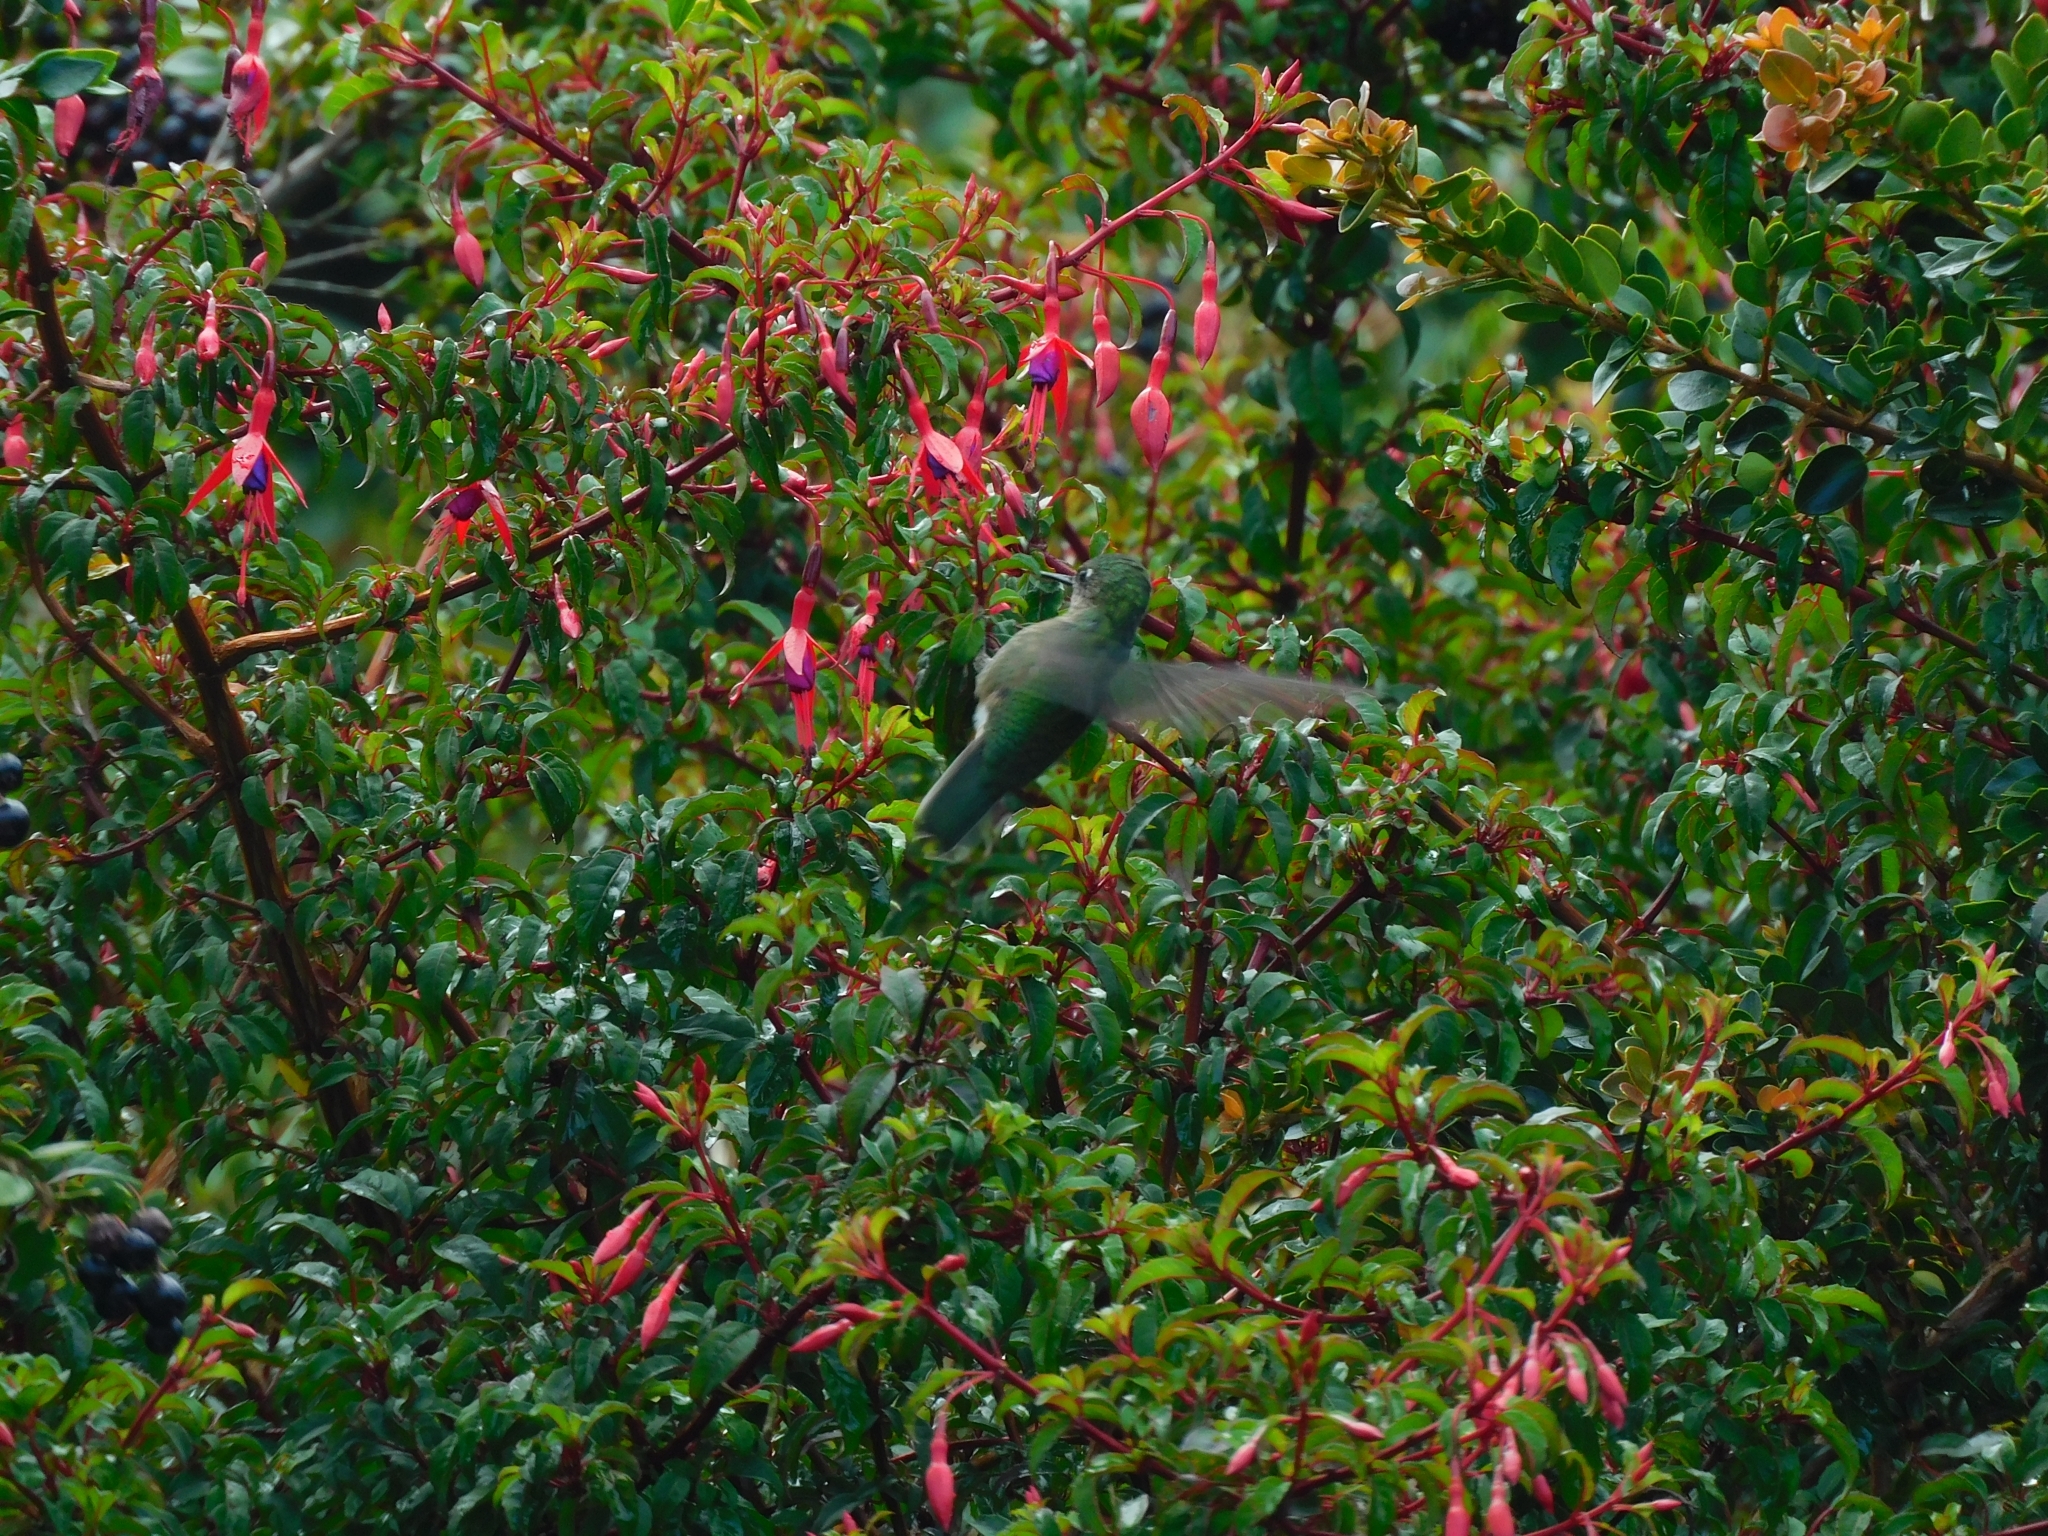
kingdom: Animalia
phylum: Chordata
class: Aves
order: Apodiformes
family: Trochilidae
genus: Sephanoides
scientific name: Sephanoides sephaniodes
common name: Green-backed firecrown
